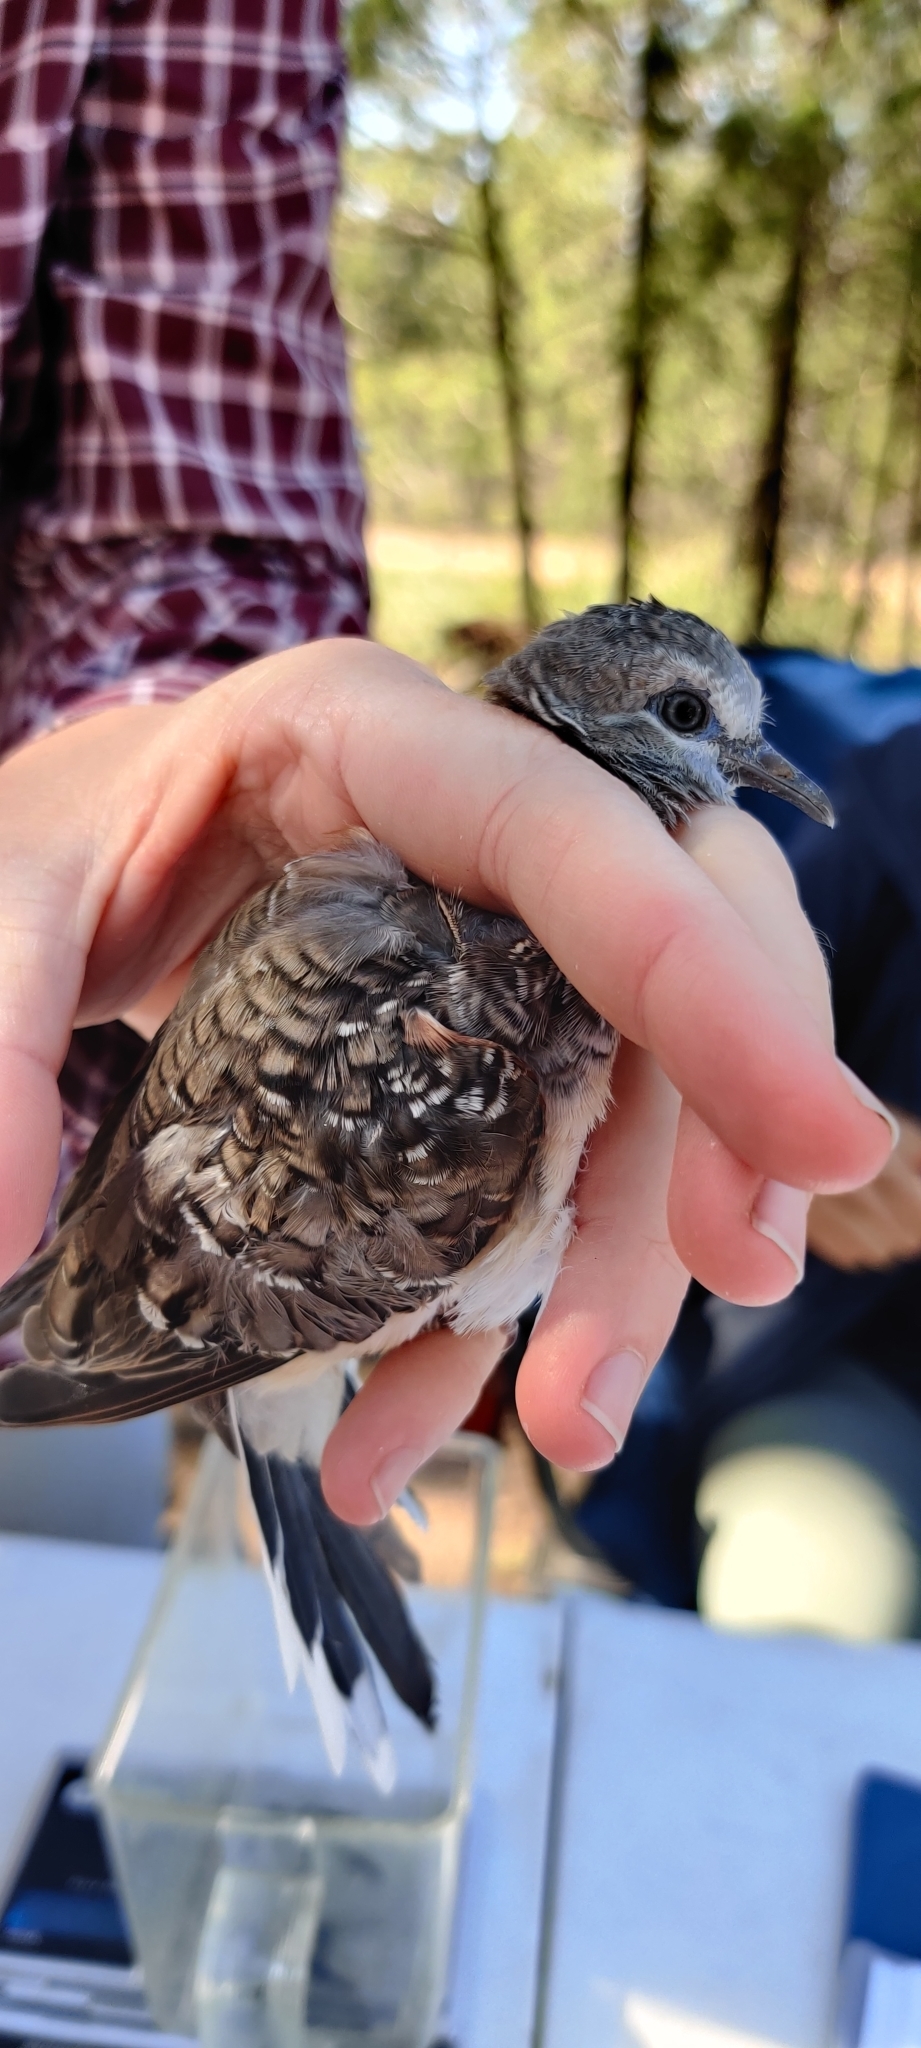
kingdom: Animalia
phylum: Chordata
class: Aves
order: Columbiformes
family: Columbidae
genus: Geopelia
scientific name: Geopelia placida
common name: Peaceful dove
